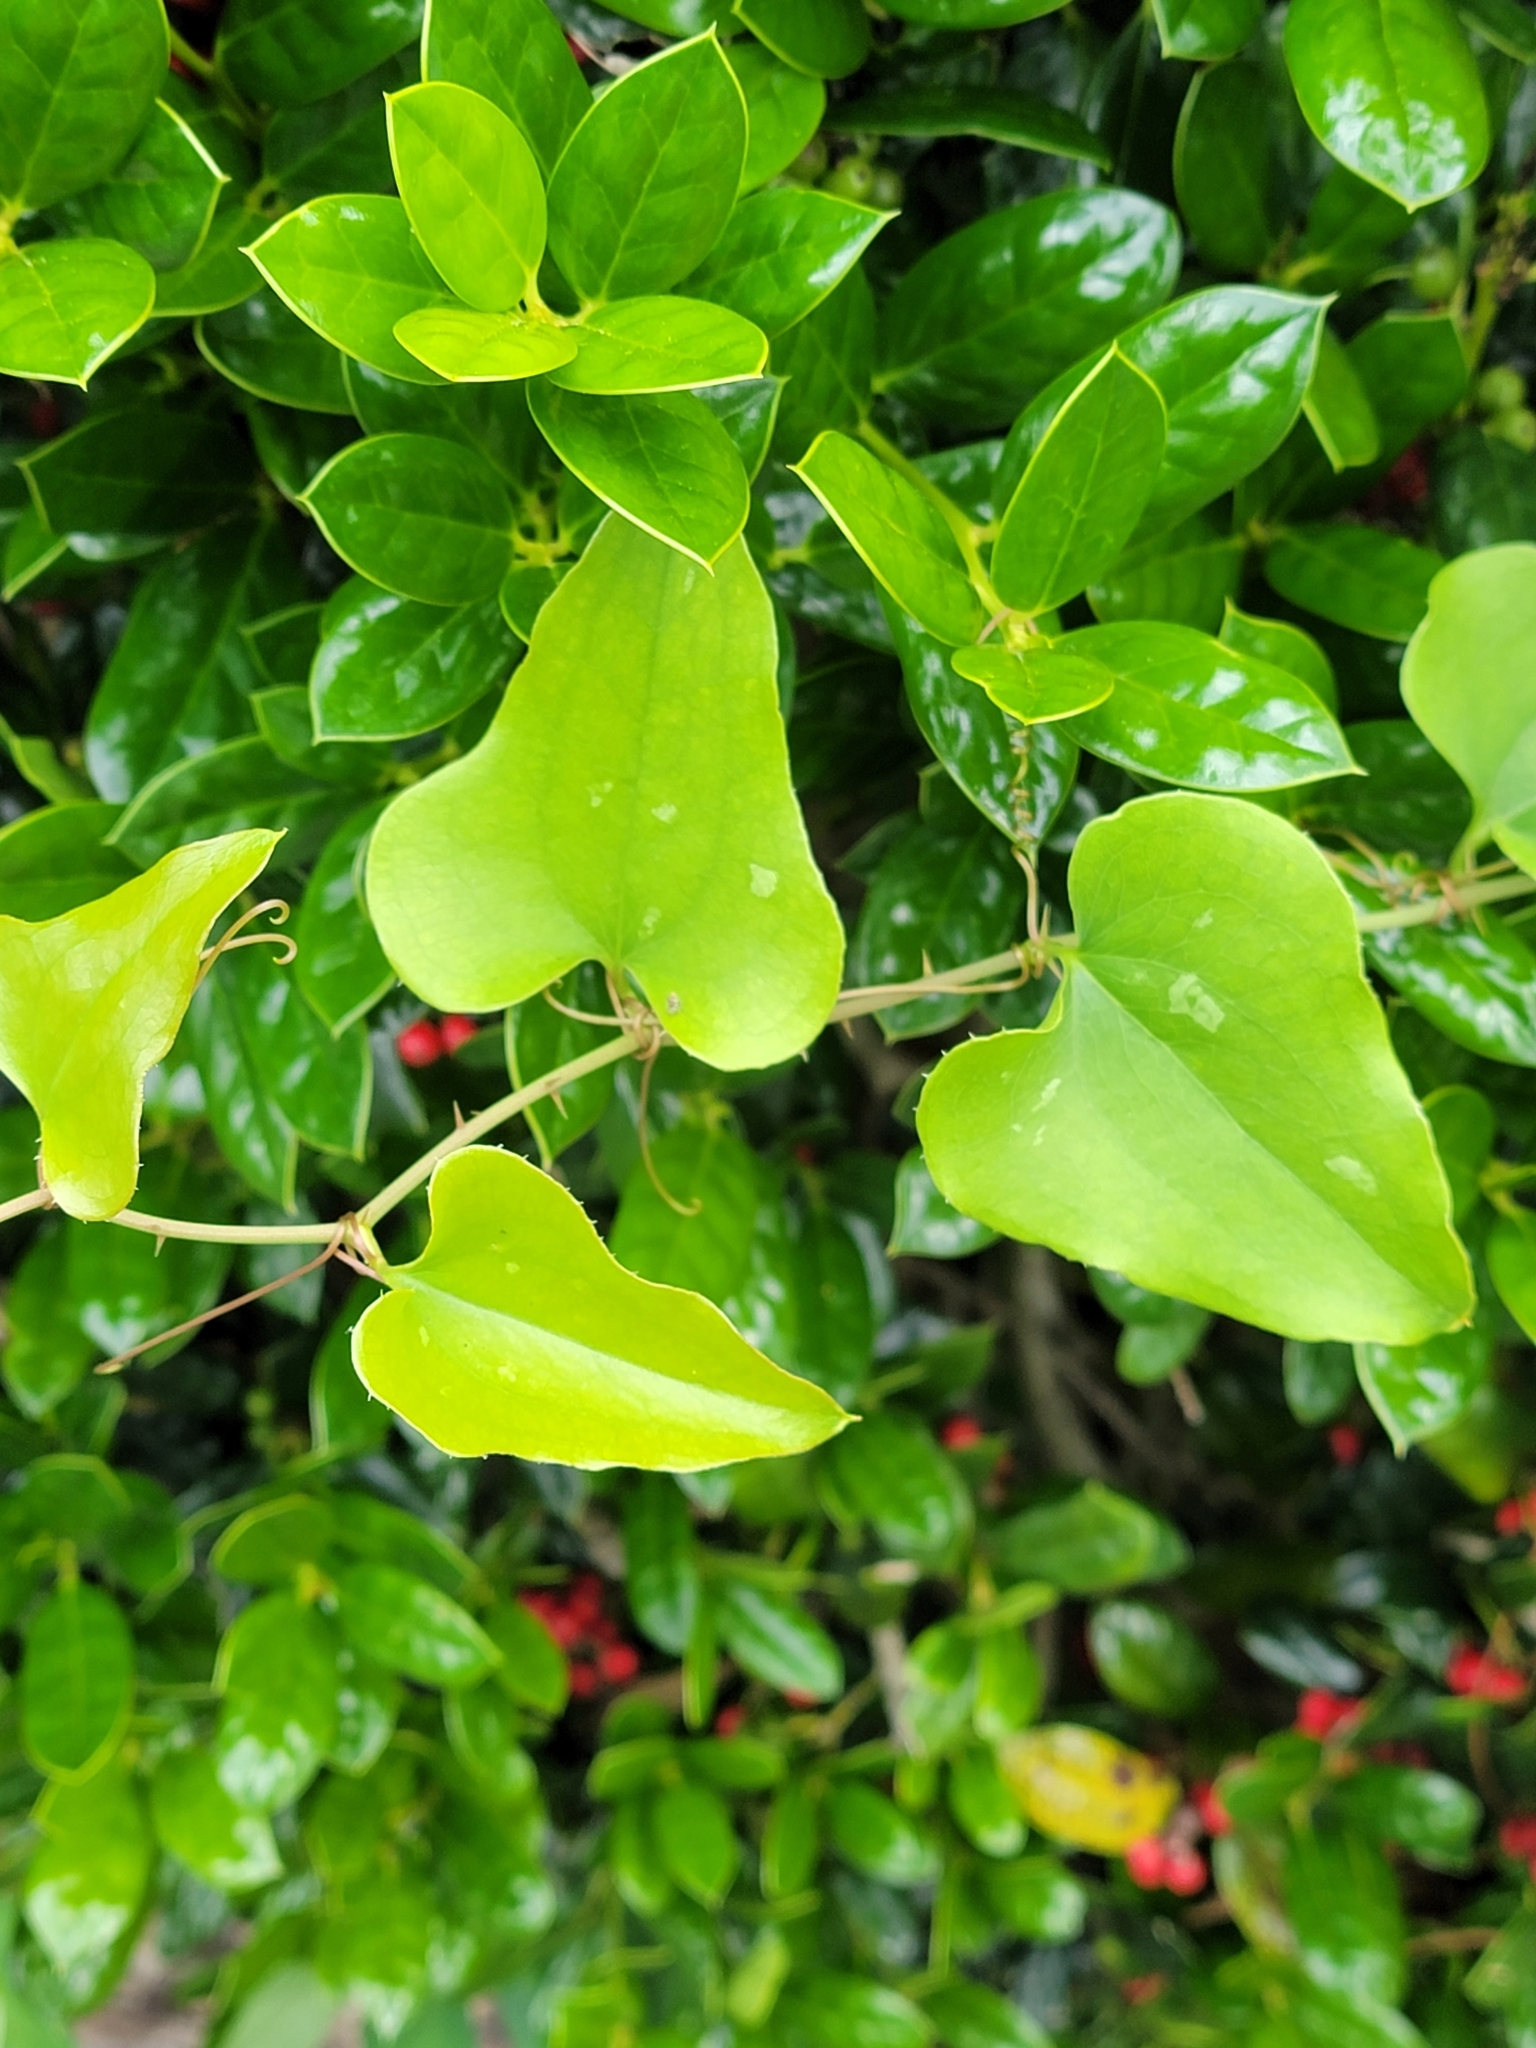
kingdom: Plantae
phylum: Tracheophyta
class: Liliopsida
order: Liliales
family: Smilacaceae
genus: Smilax
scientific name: Smilax bona-nox
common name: Catbrier
